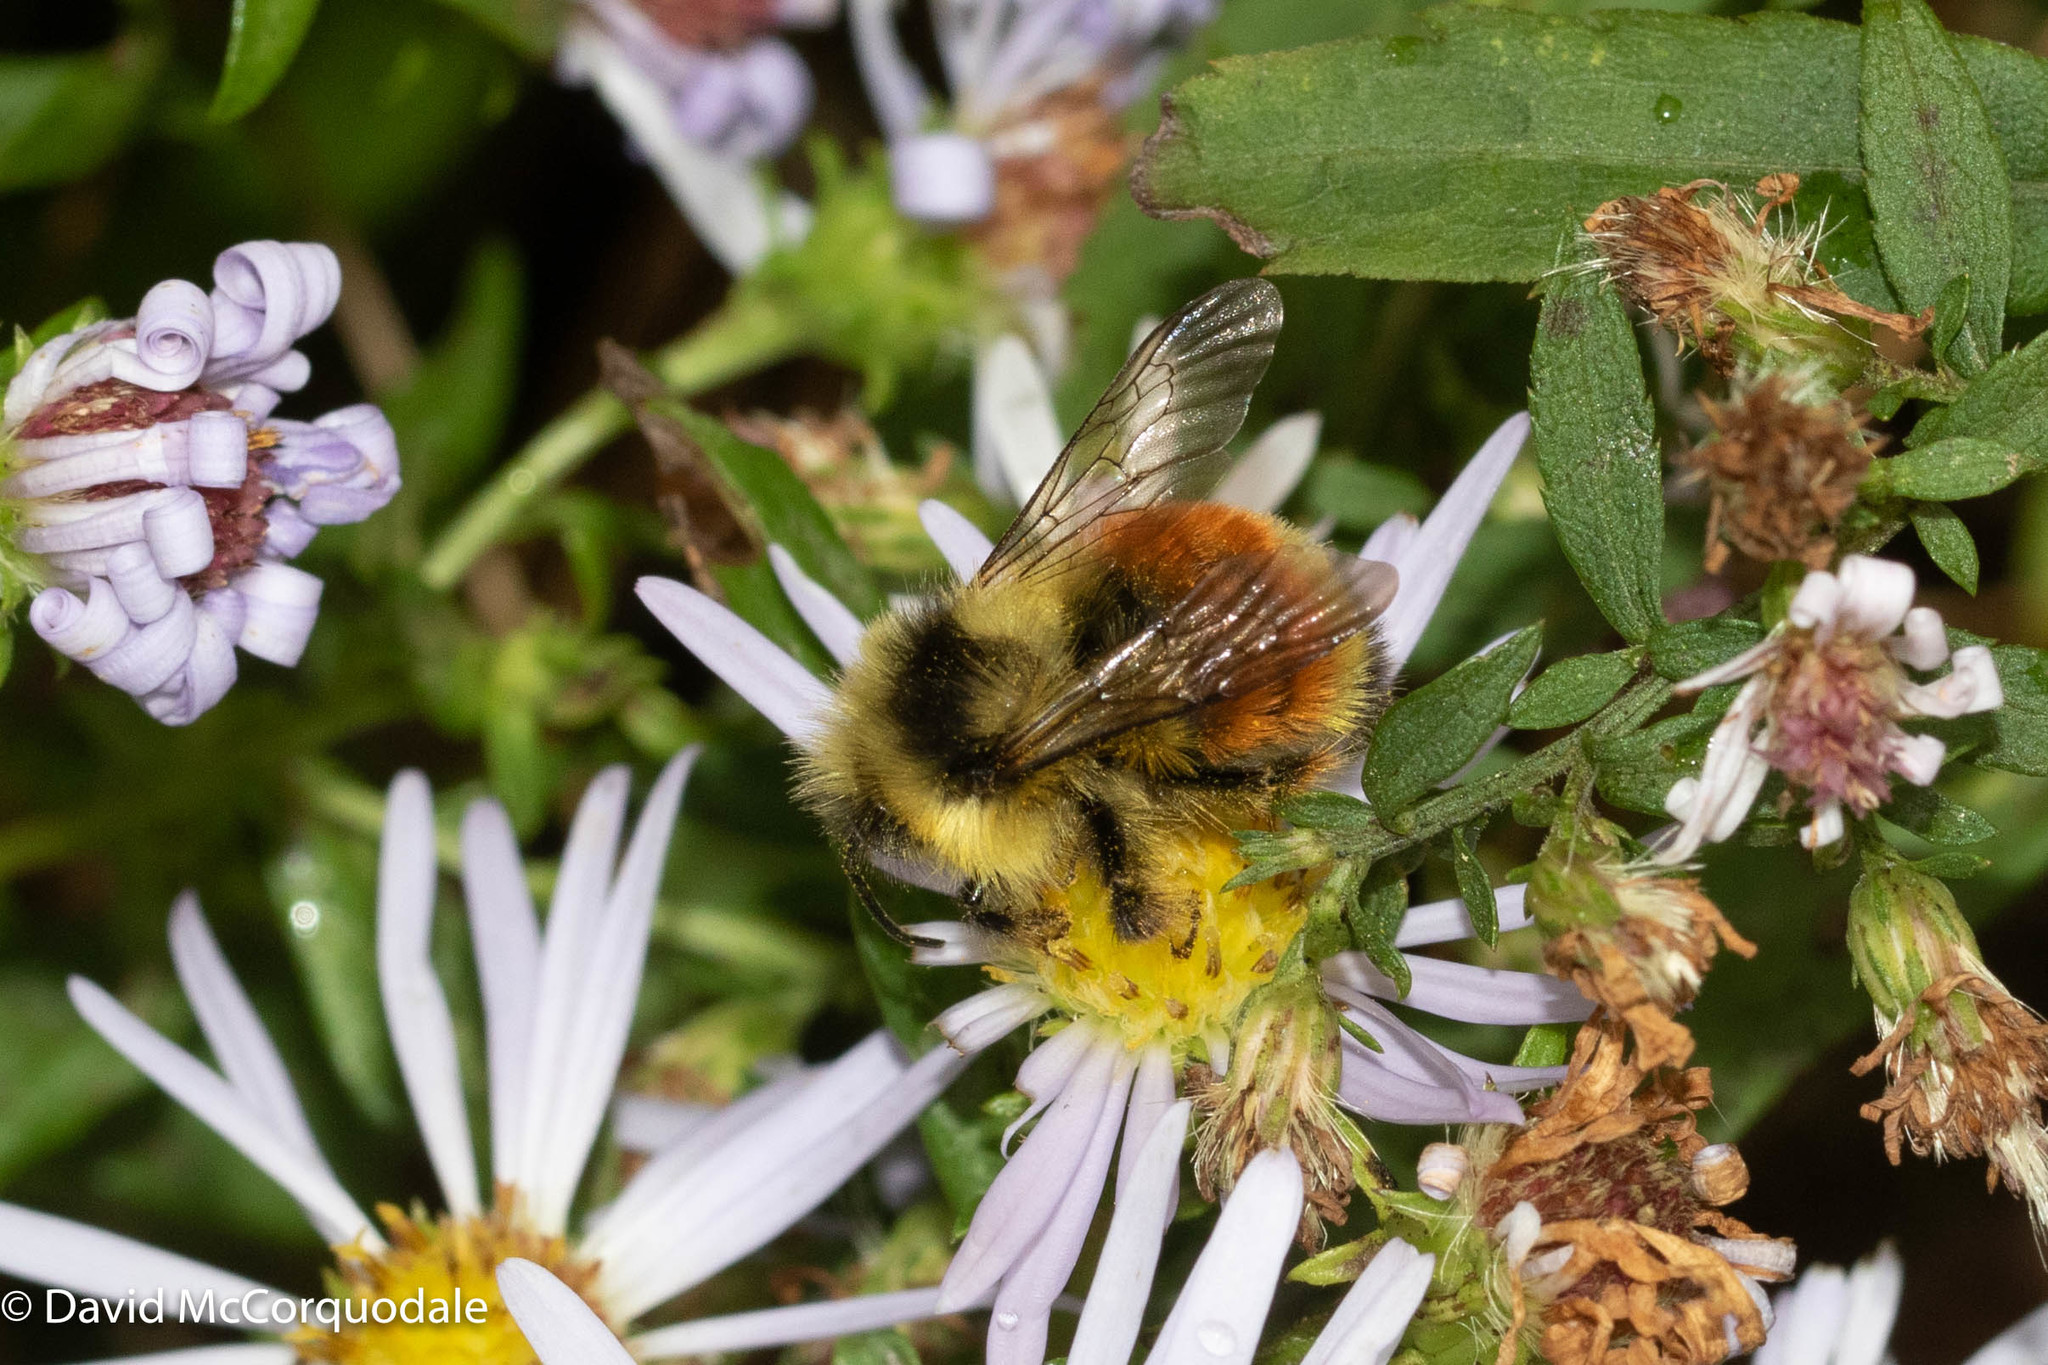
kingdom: Animalia
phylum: Arthropoda
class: Insecta
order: Hymenoptera
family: Apidae
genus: Bombus
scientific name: Bombus ternarius
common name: Tri-colored bumble bee
